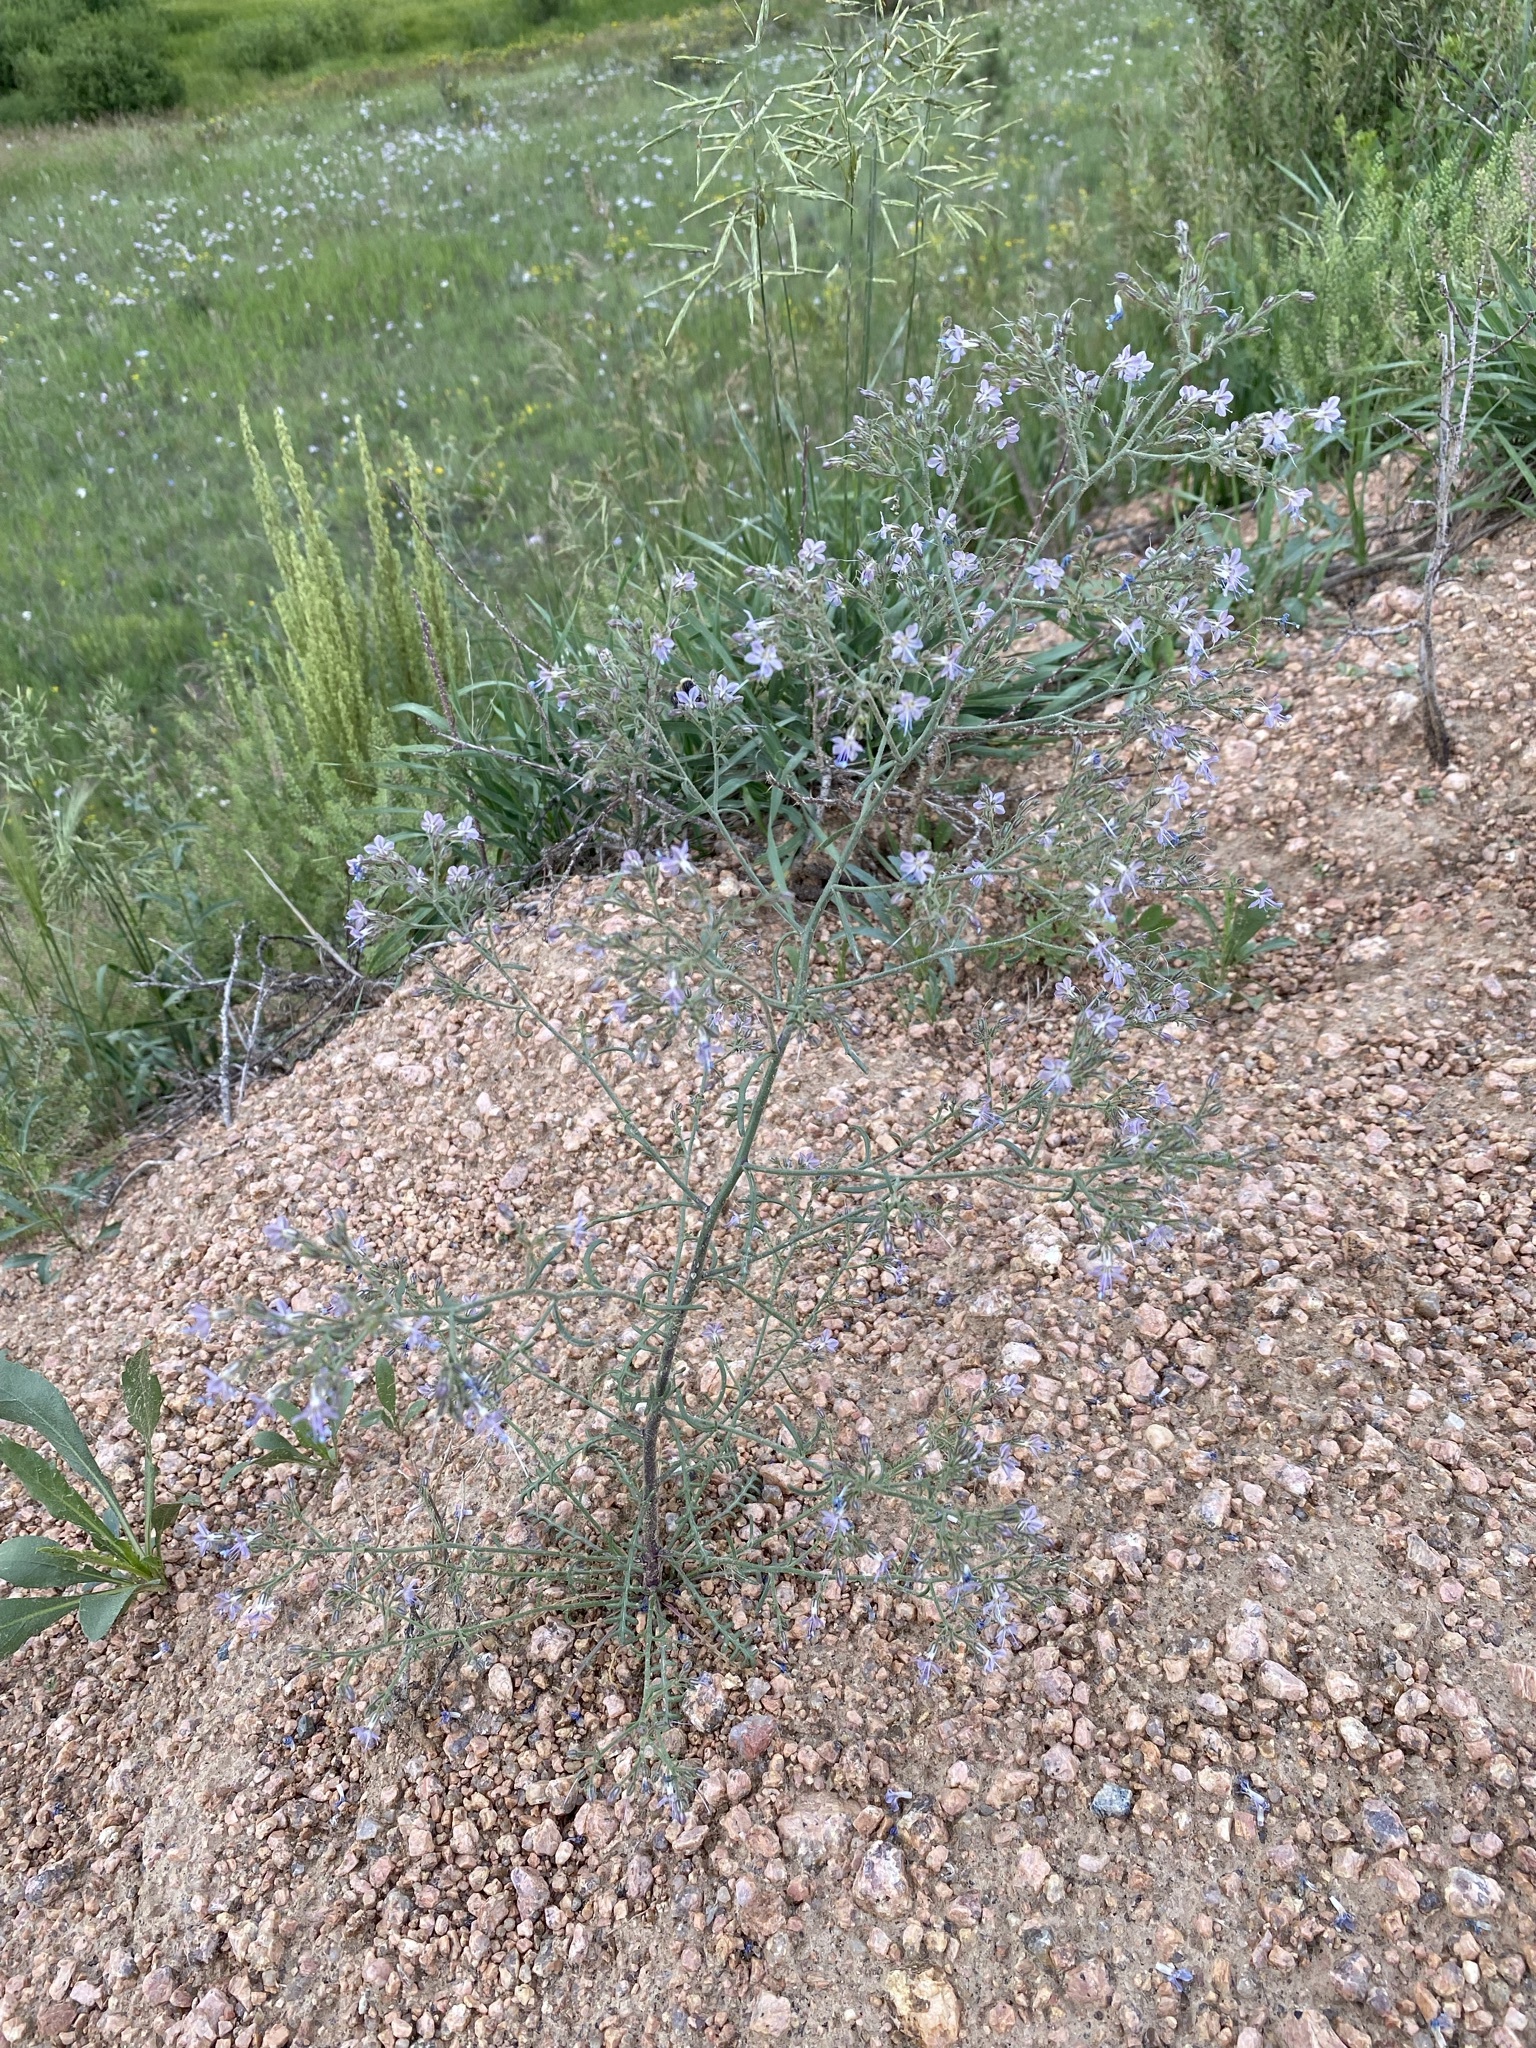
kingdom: Plantae
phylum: Tracheophyta
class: Magnoliopsida
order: Ericales
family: Polemoniaceae
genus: Aliciella
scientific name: Aliciella pinnatifida
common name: Sticky gilia
